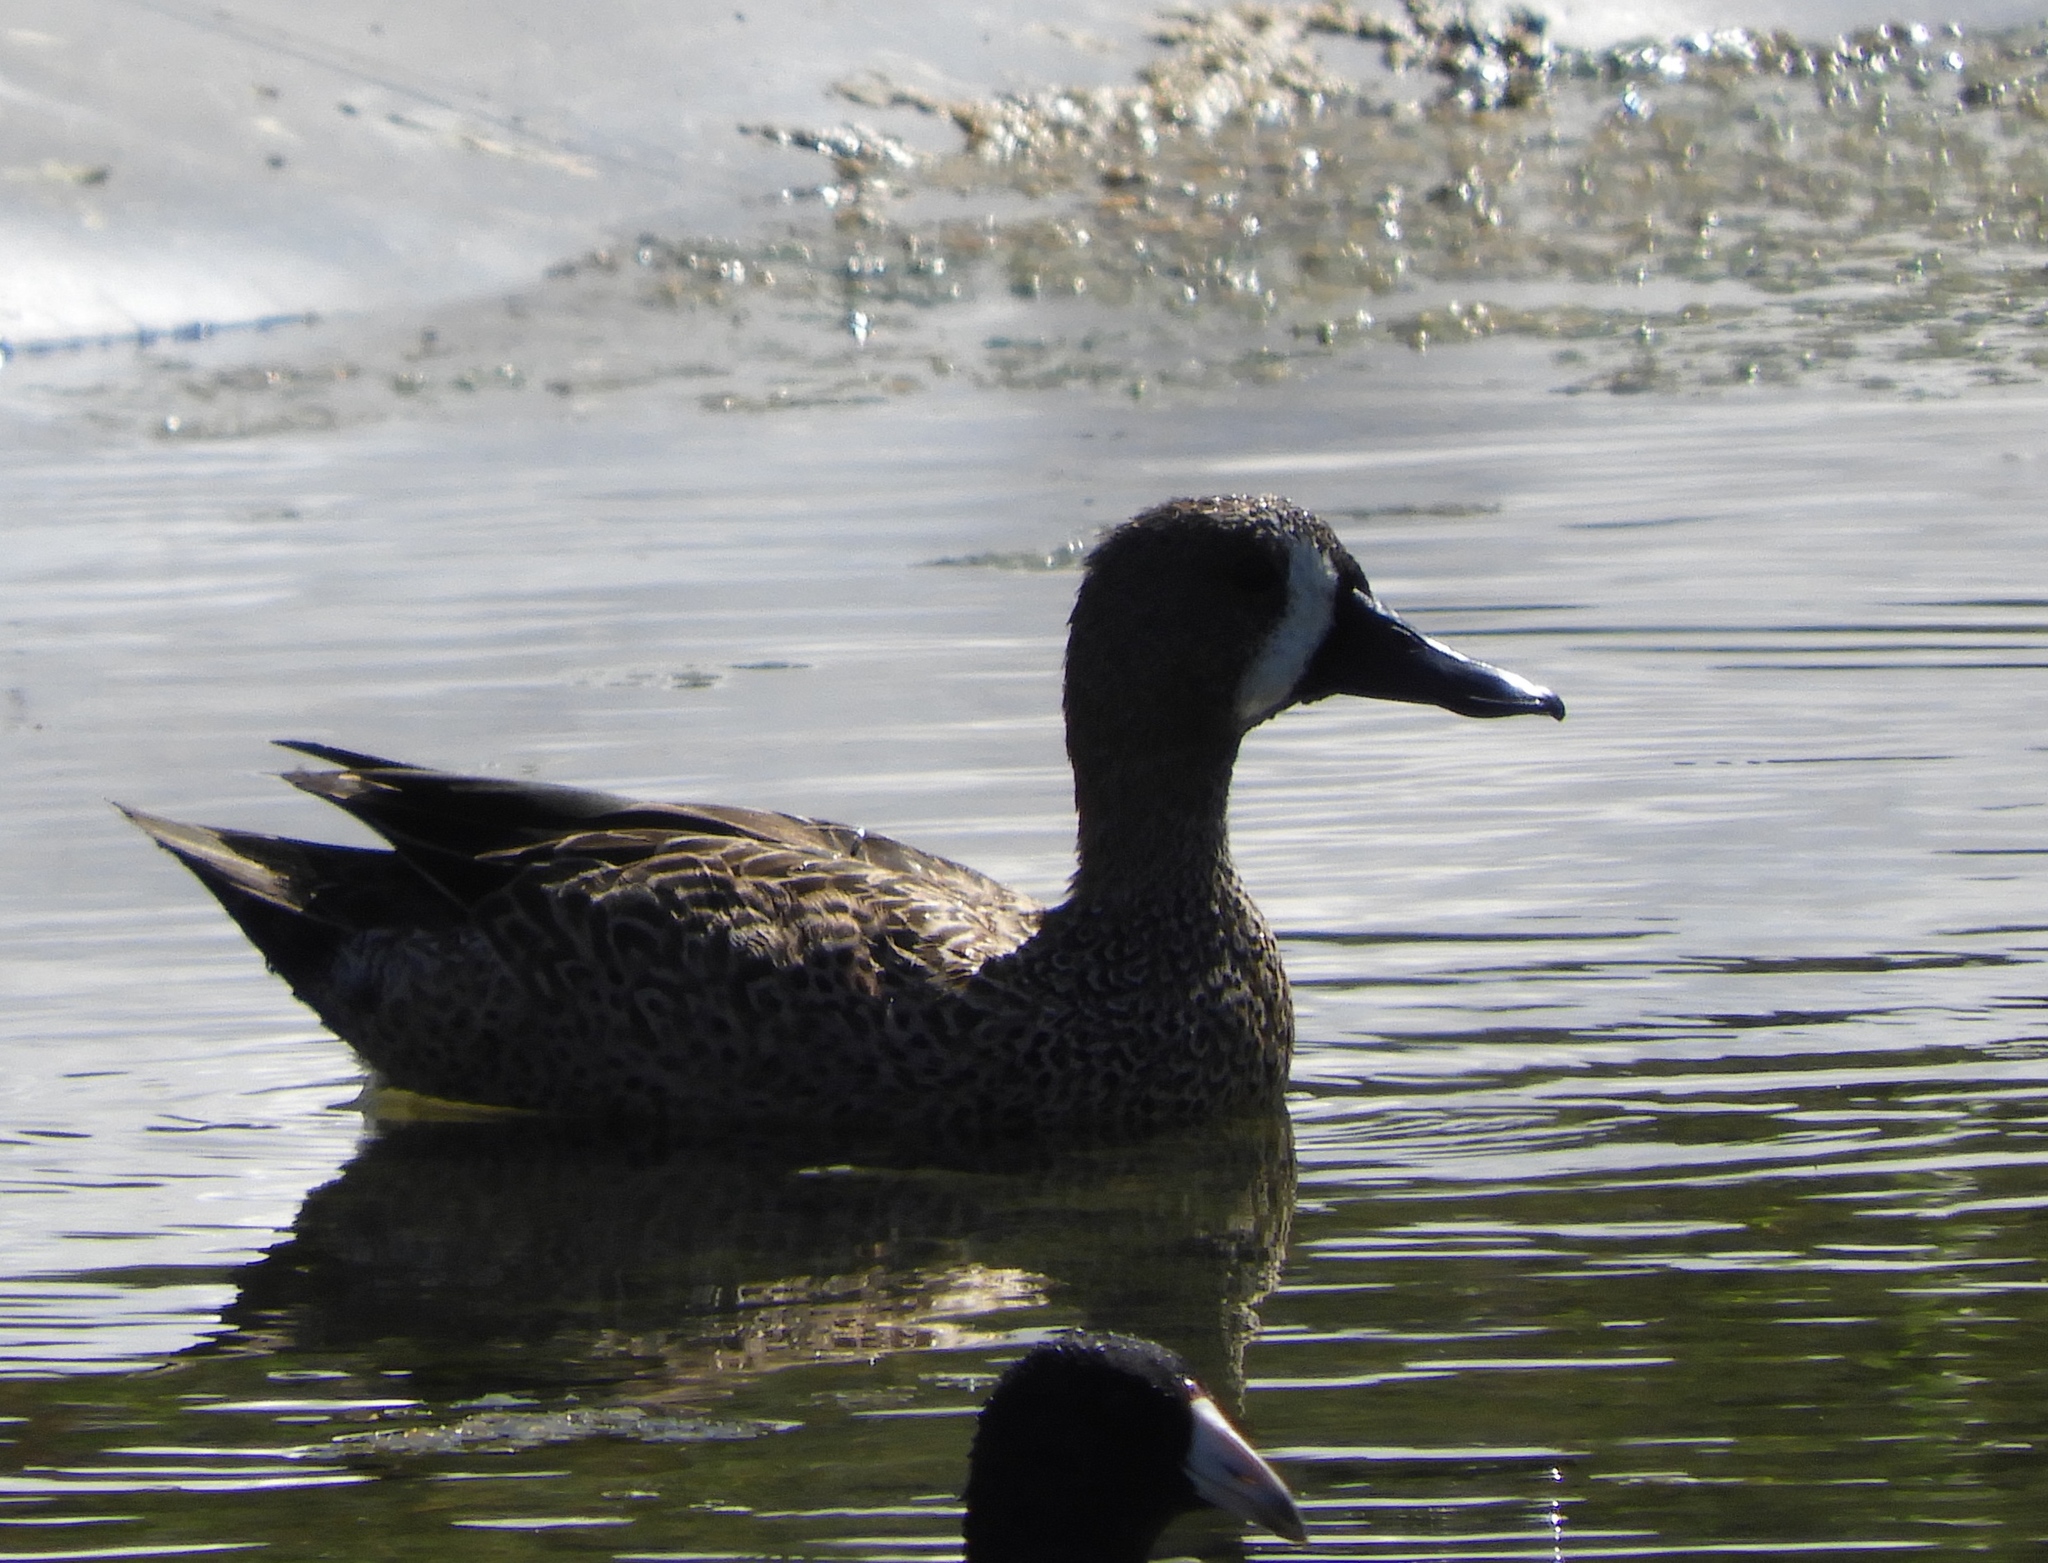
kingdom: Animalia
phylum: Chordata
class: Aves
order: Anseriformes
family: Anatidae
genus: Spatula
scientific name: Spatula discors
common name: Blue-winged teal
